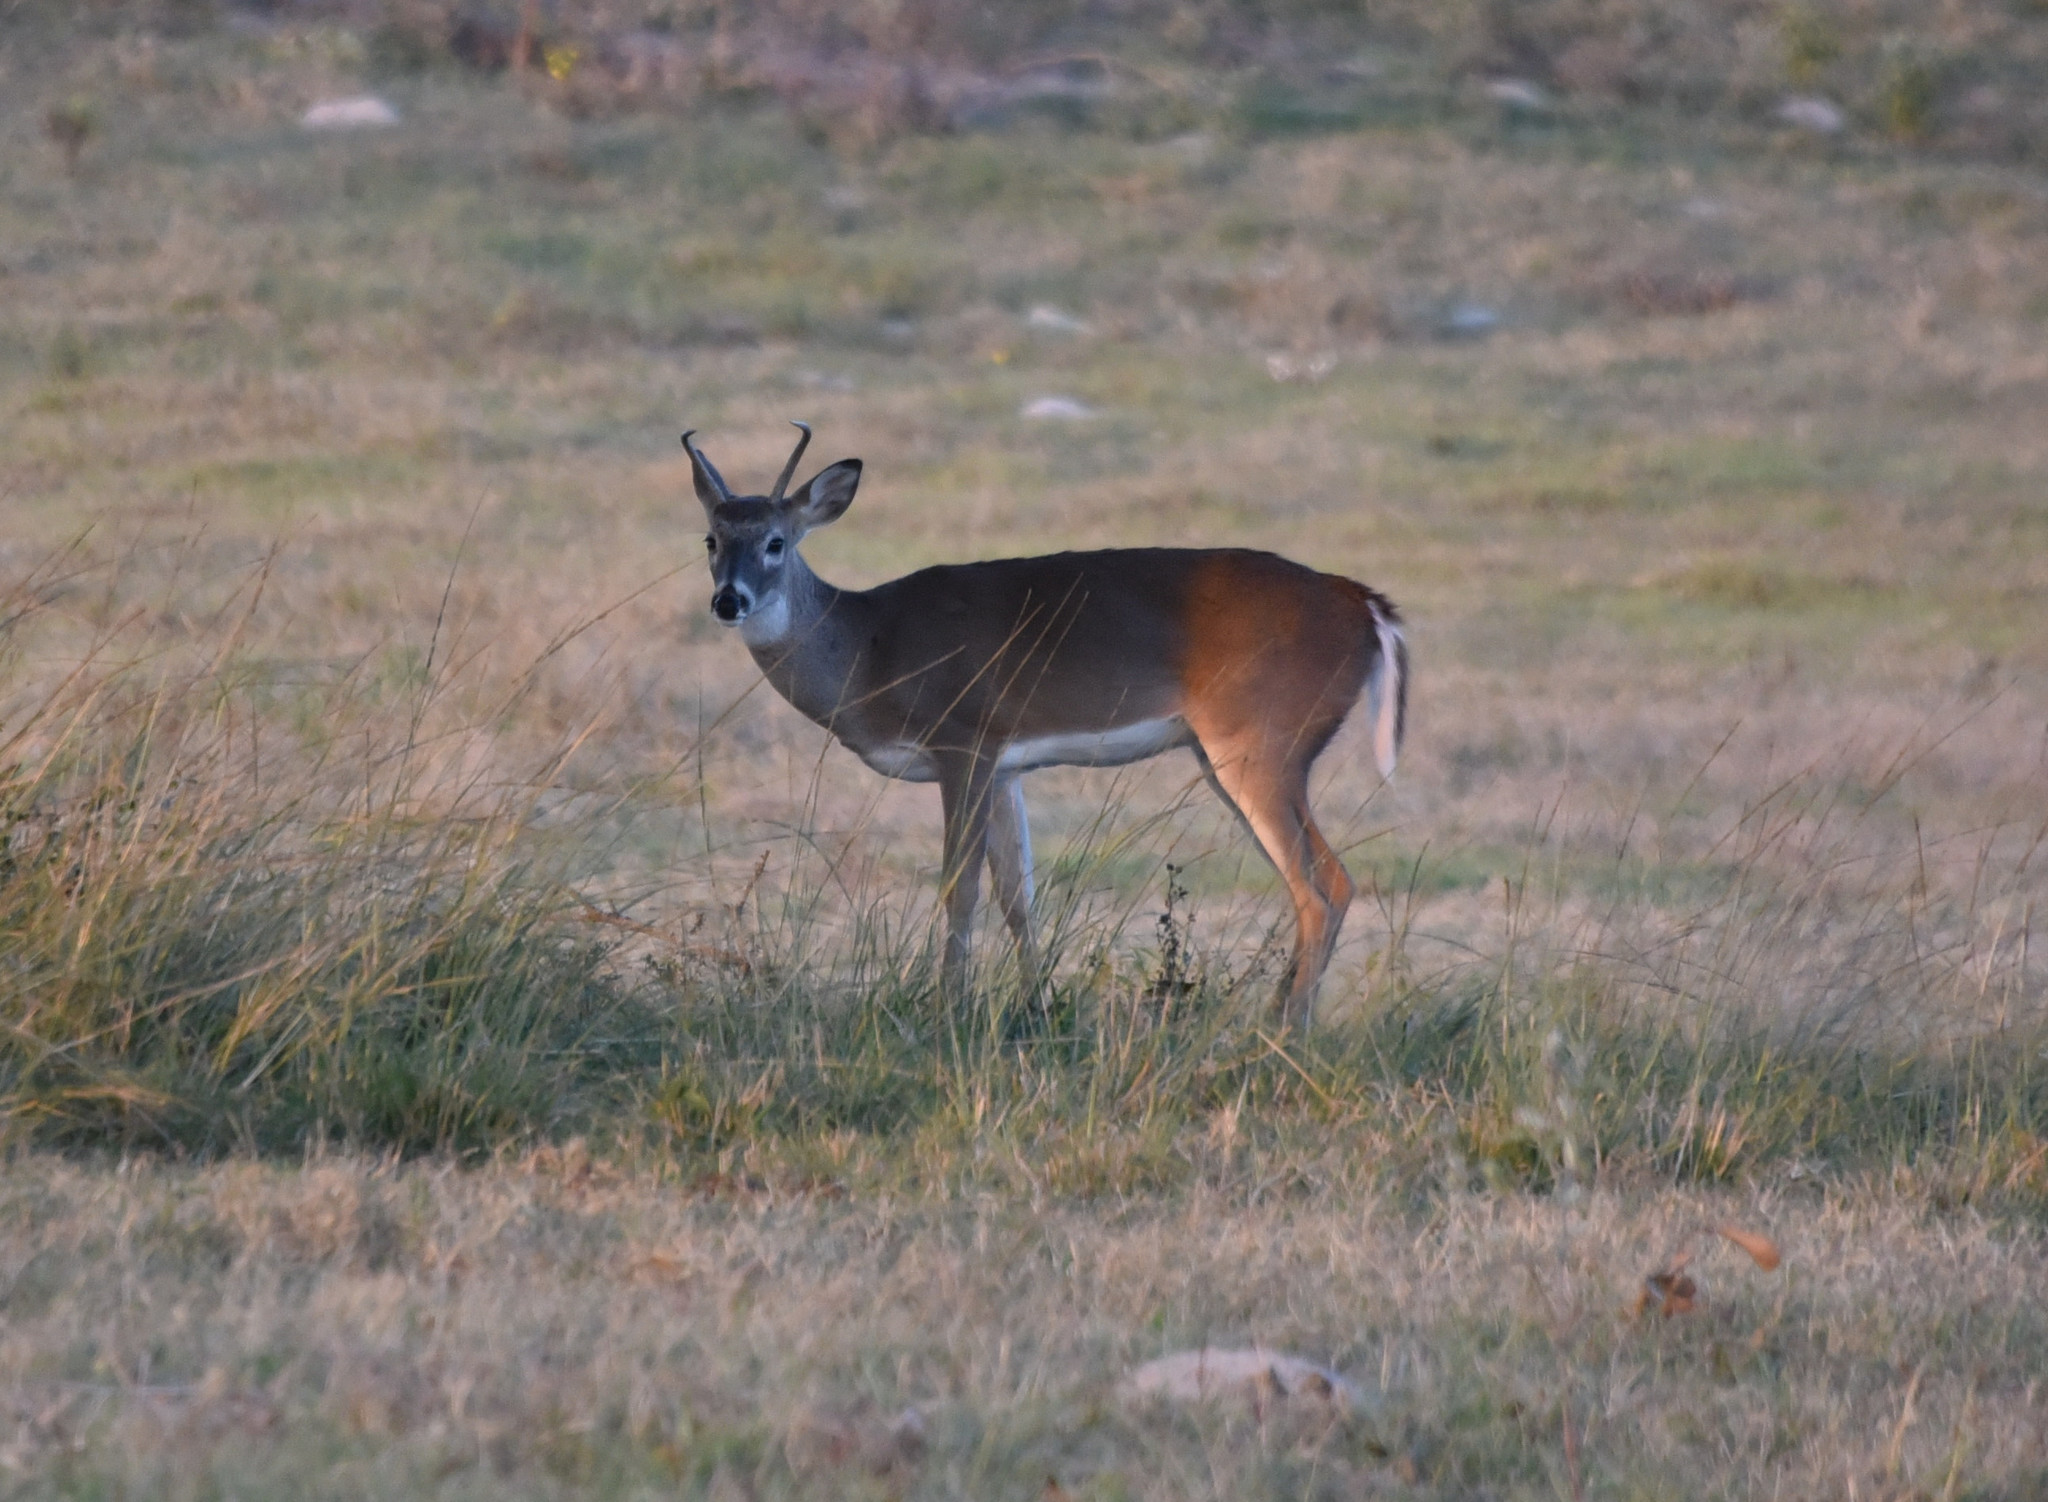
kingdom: Animalia
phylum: Chordata
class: Mammalia
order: Artiodactyla
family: Cervidae
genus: Odocoileus
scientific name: Odocoileus virginianus
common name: White-tailed deer
